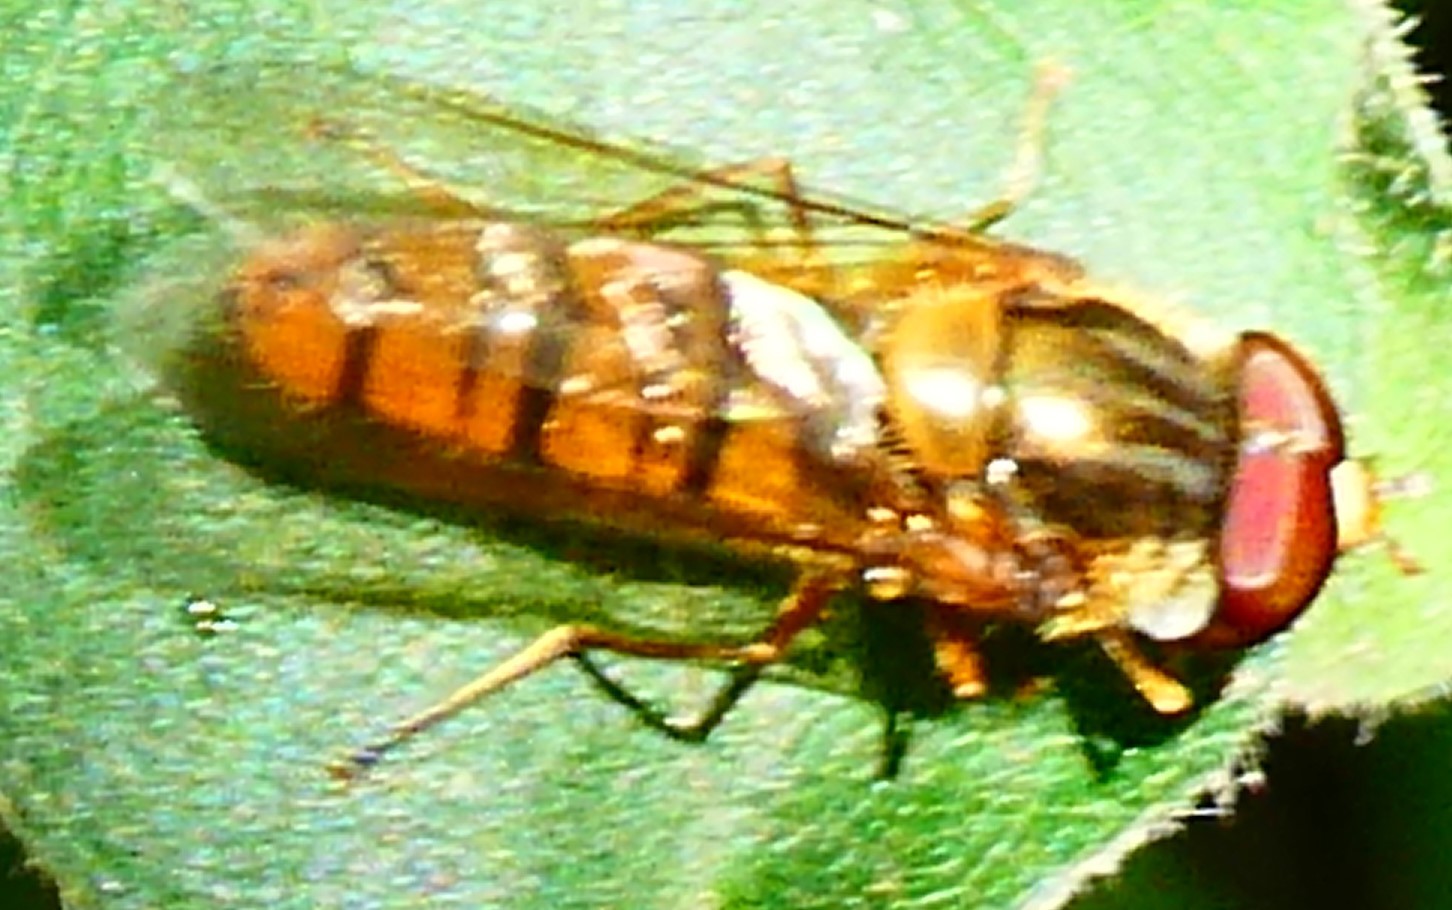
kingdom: Animalia
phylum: Arthropoda
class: Insecta
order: Diptera
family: Syrphidae
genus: Episyrphus
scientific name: Episyrphus balteatus
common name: Marmalade hoverfly
